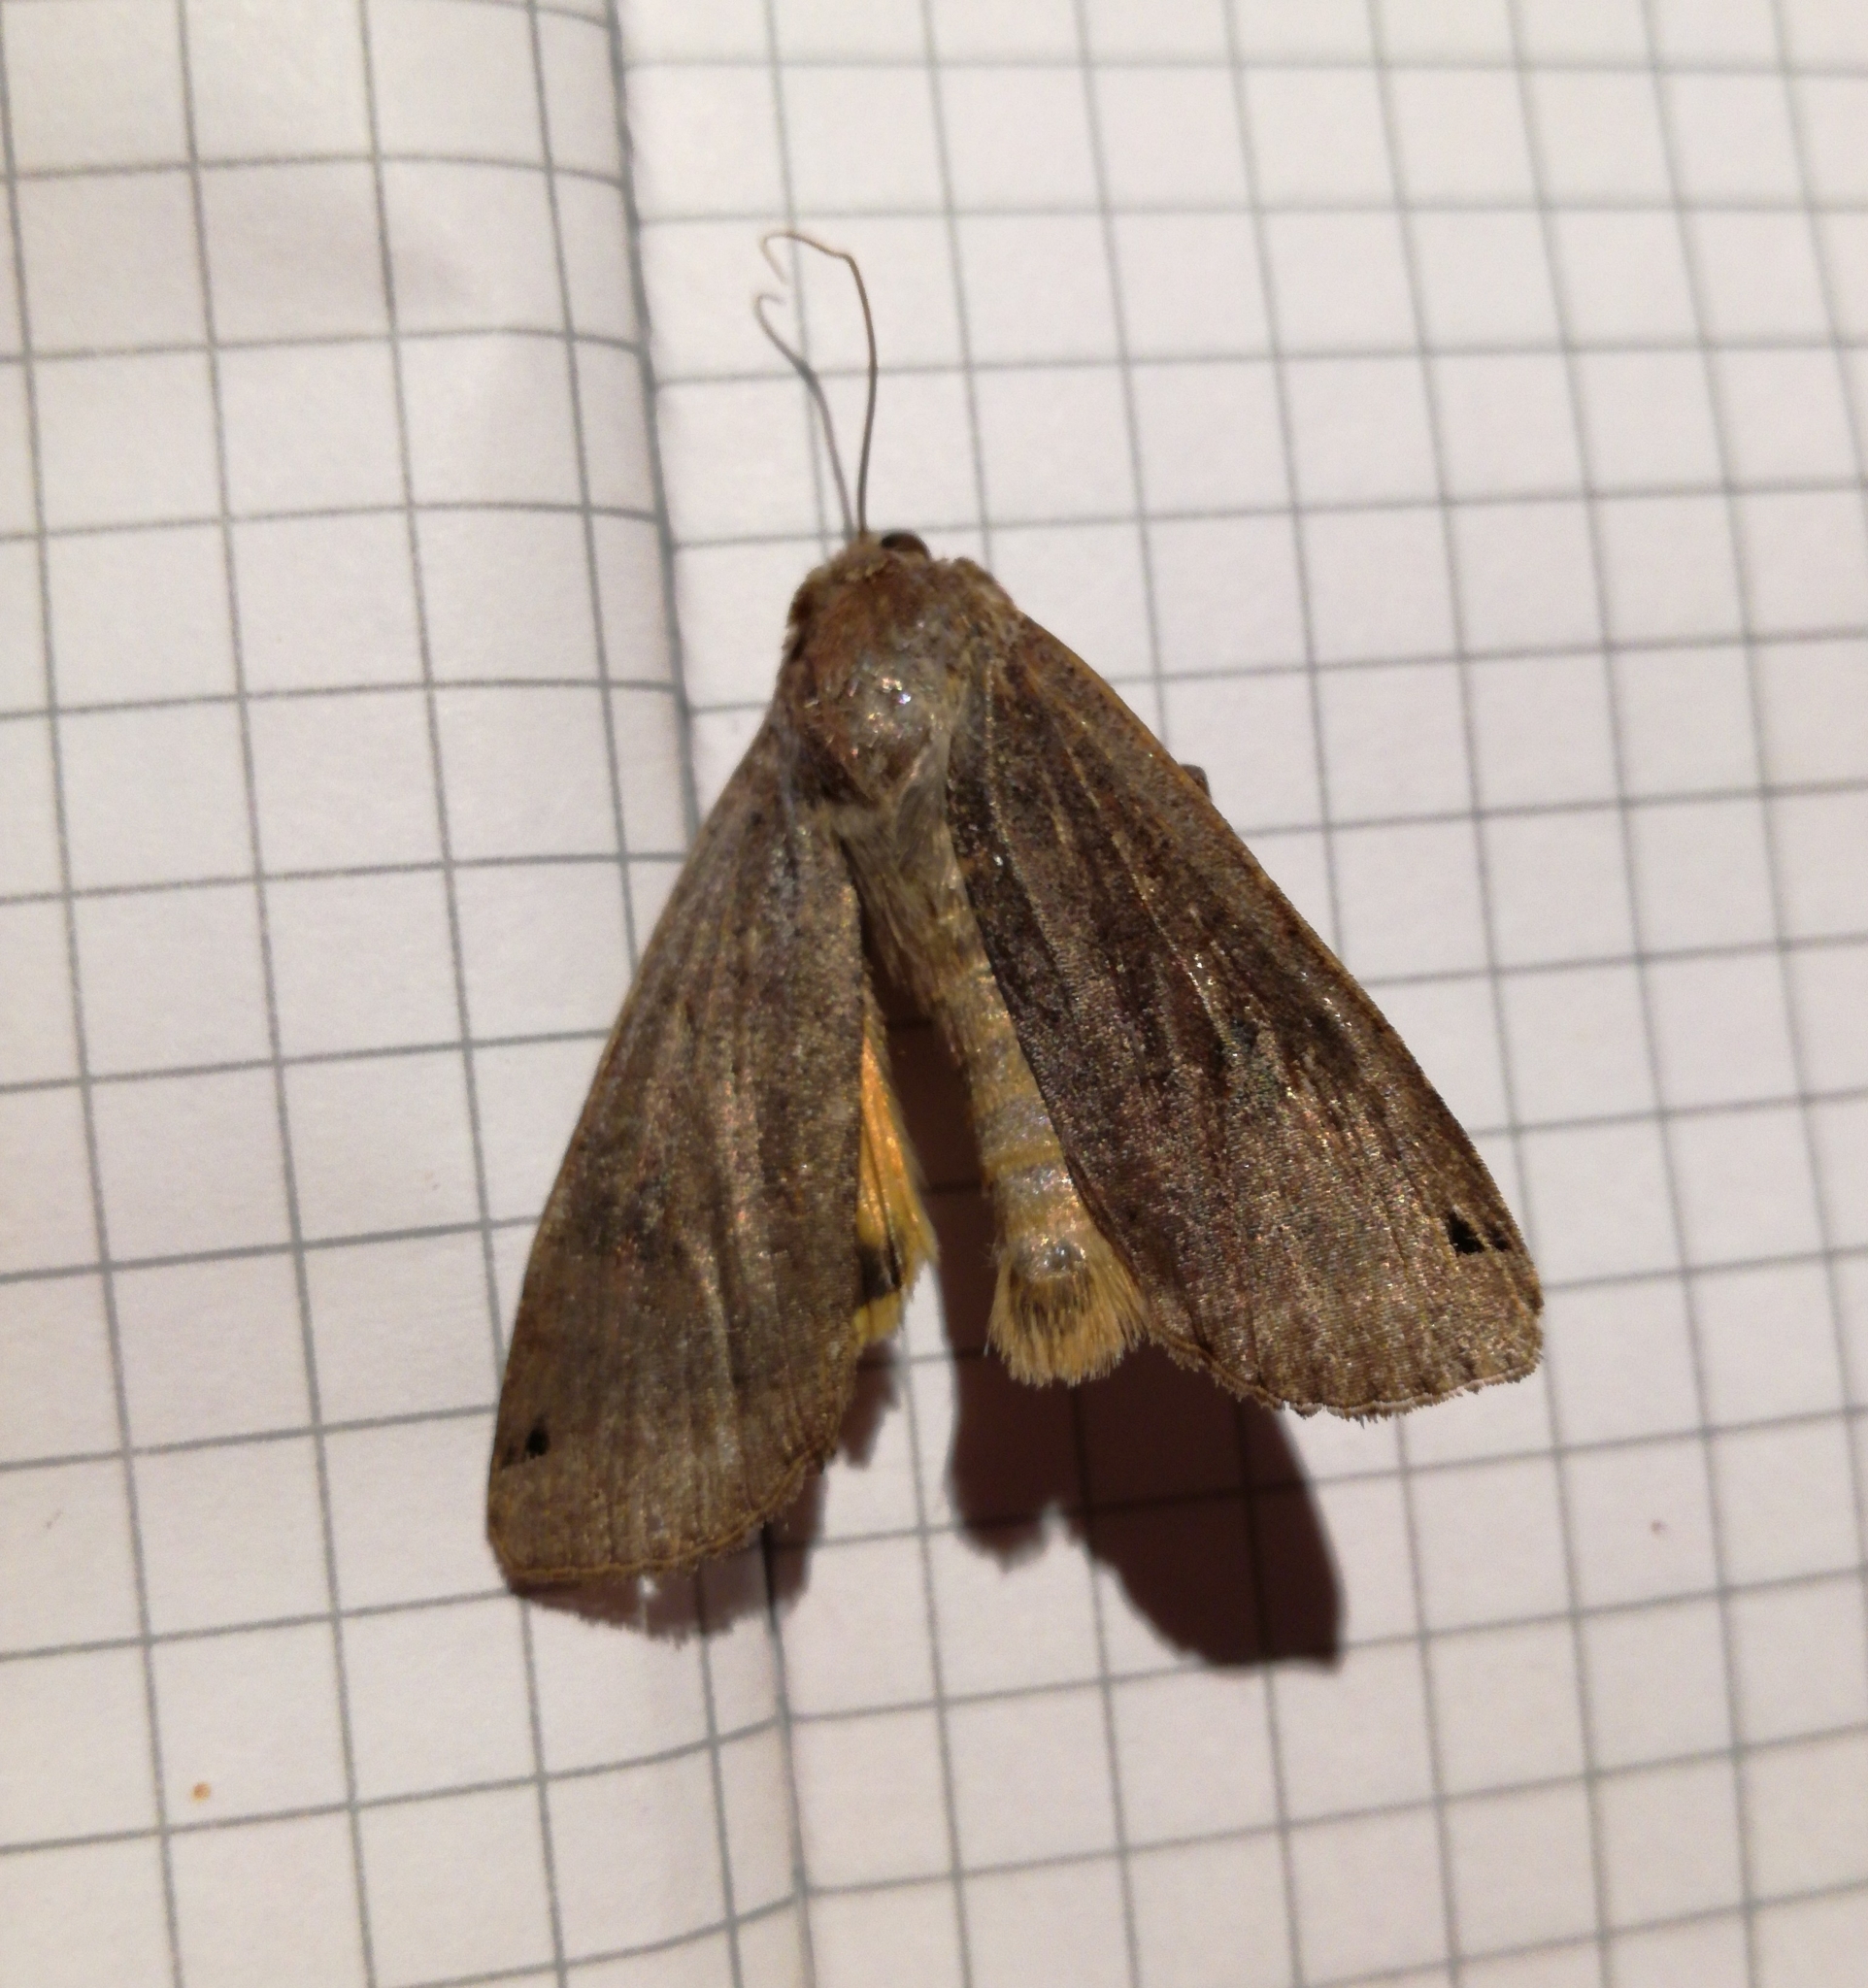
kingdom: Animalia
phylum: Arthropoda
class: Insecta
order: Lepidoptera
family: Noctuidae
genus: Noctua
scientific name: Noctua pronuba
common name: Large yellow underwing
